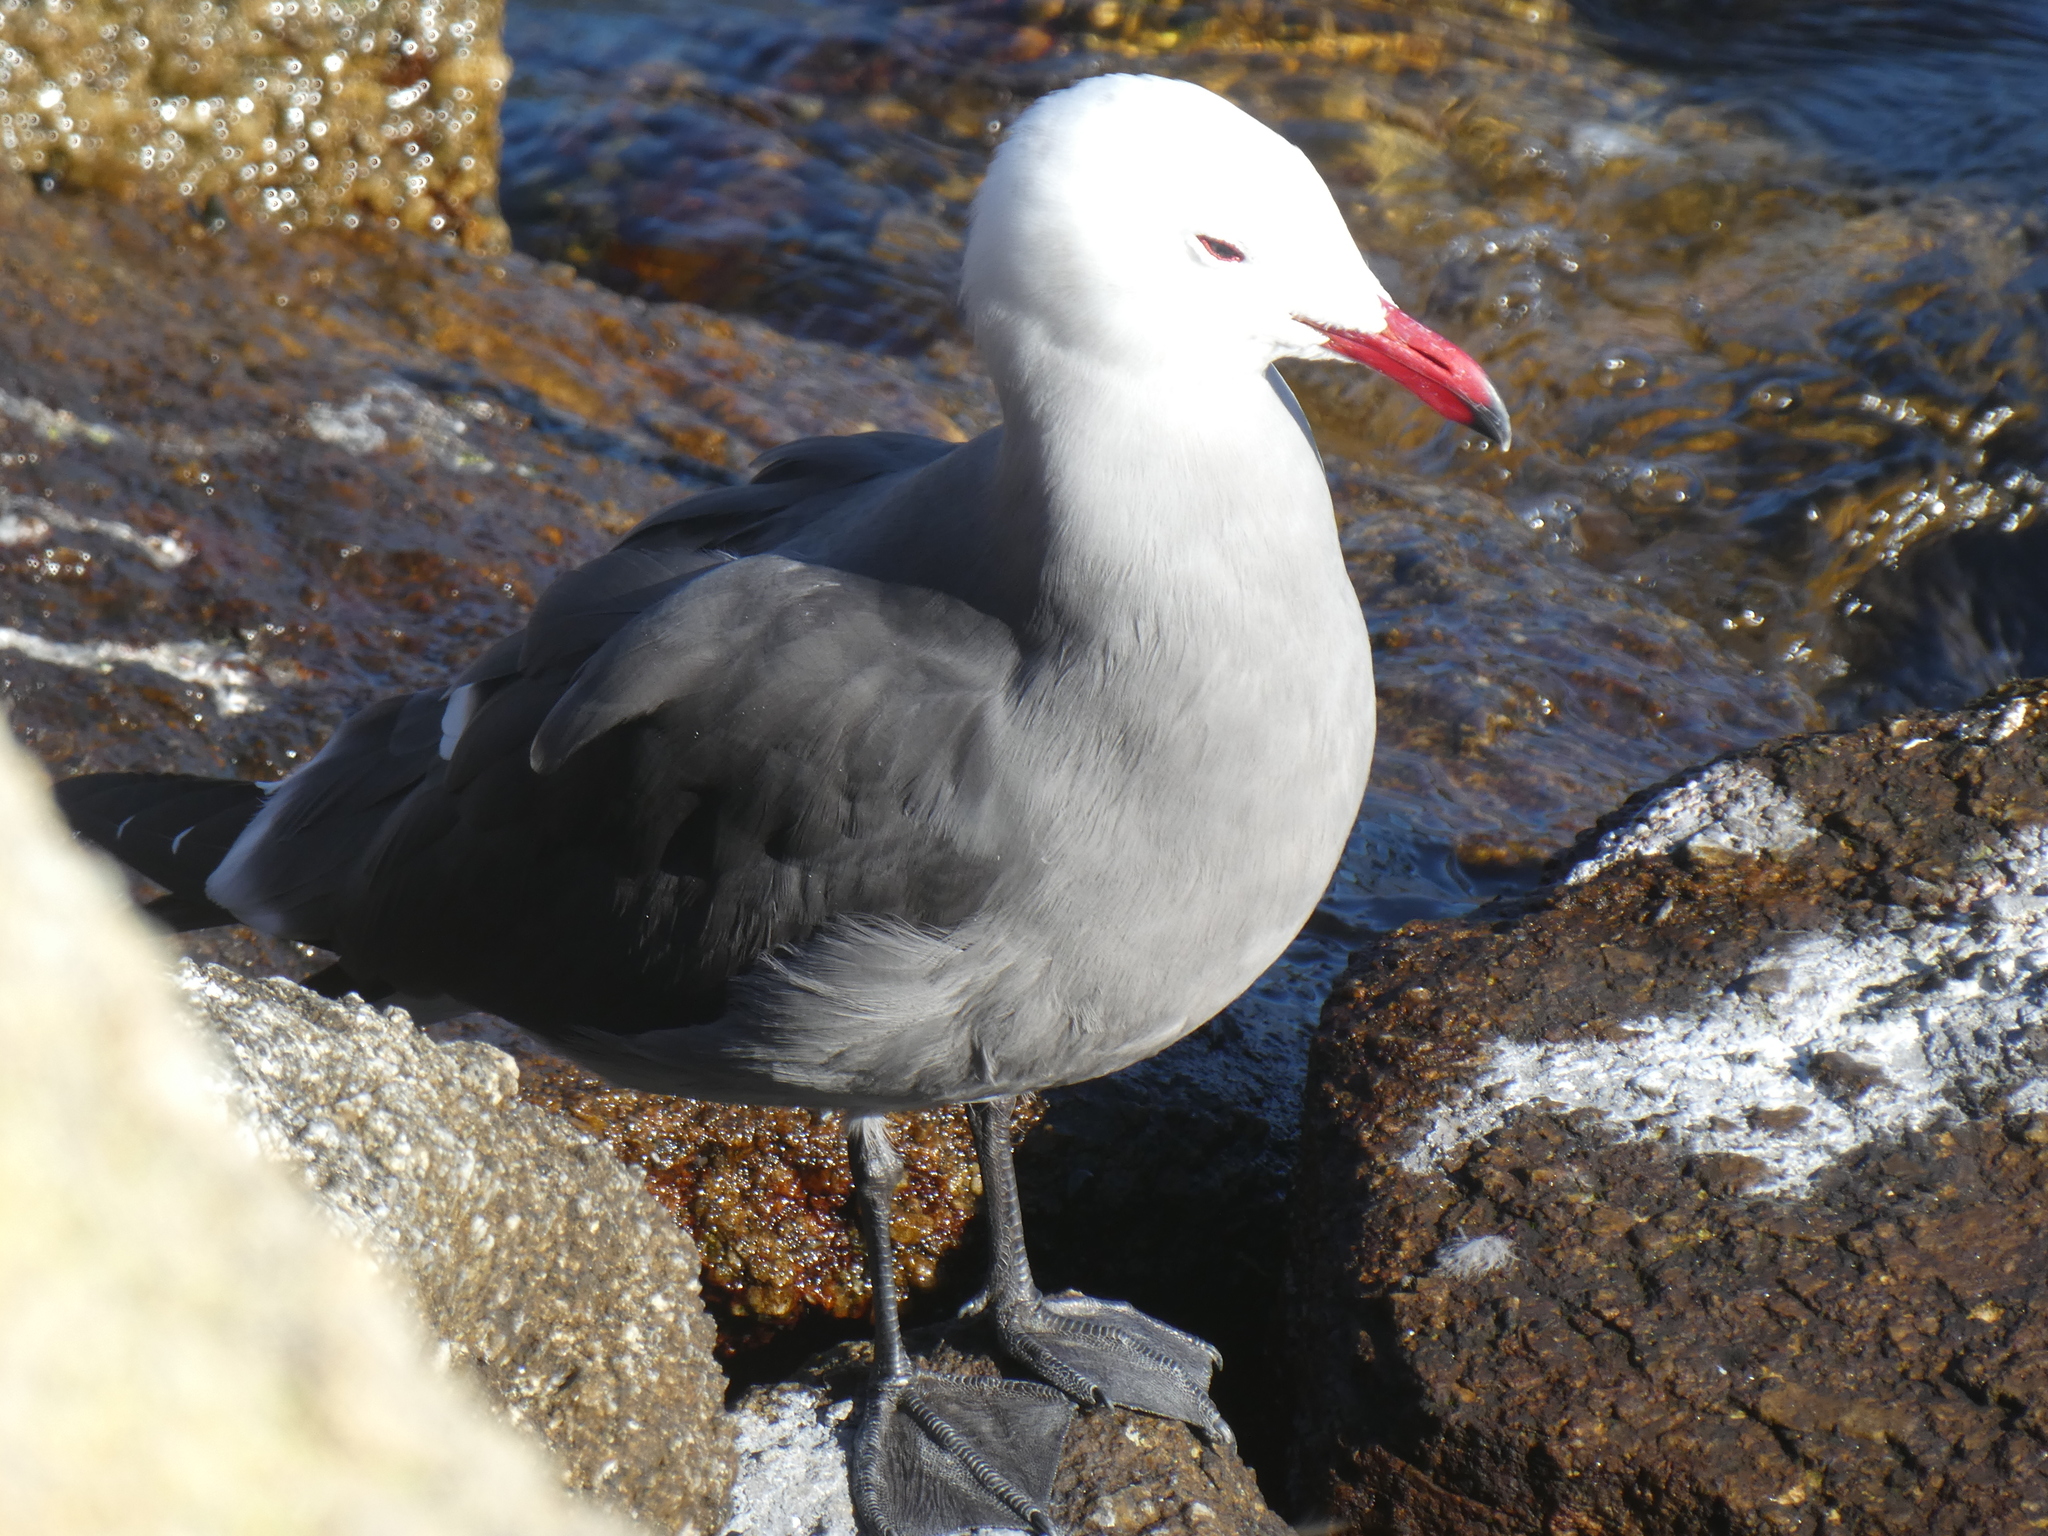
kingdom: Animalia
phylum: Chordata
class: Aves
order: Charadriiformes
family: Laridae
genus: Larus
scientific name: Larus heermanni
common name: Heermann's gull
